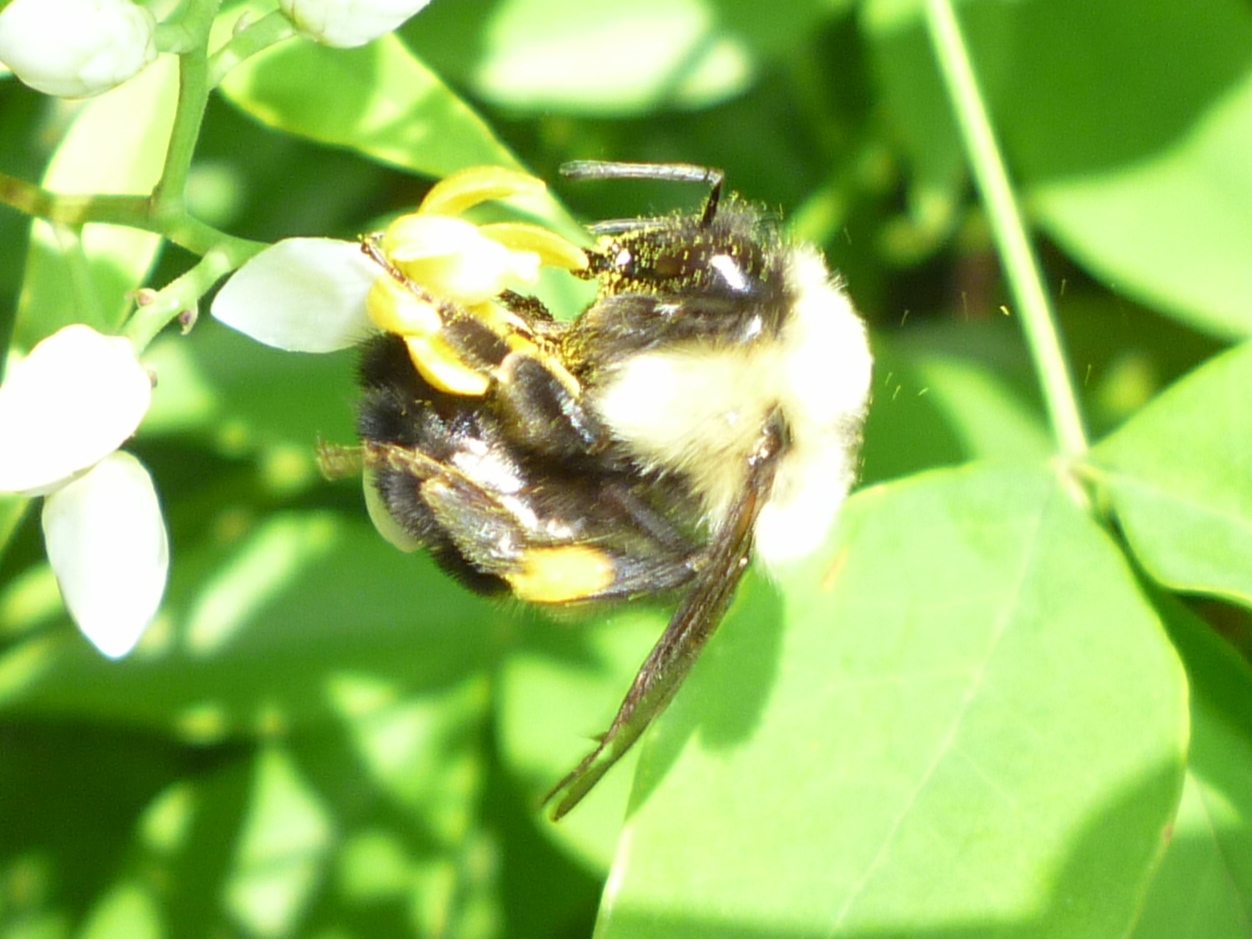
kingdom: Animalia
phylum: Arthropoda
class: Insecta
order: Hymenoptera
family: Apidae
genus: Bombus
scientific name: Bombus griseocollis
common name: Brown-belted bumble bee
